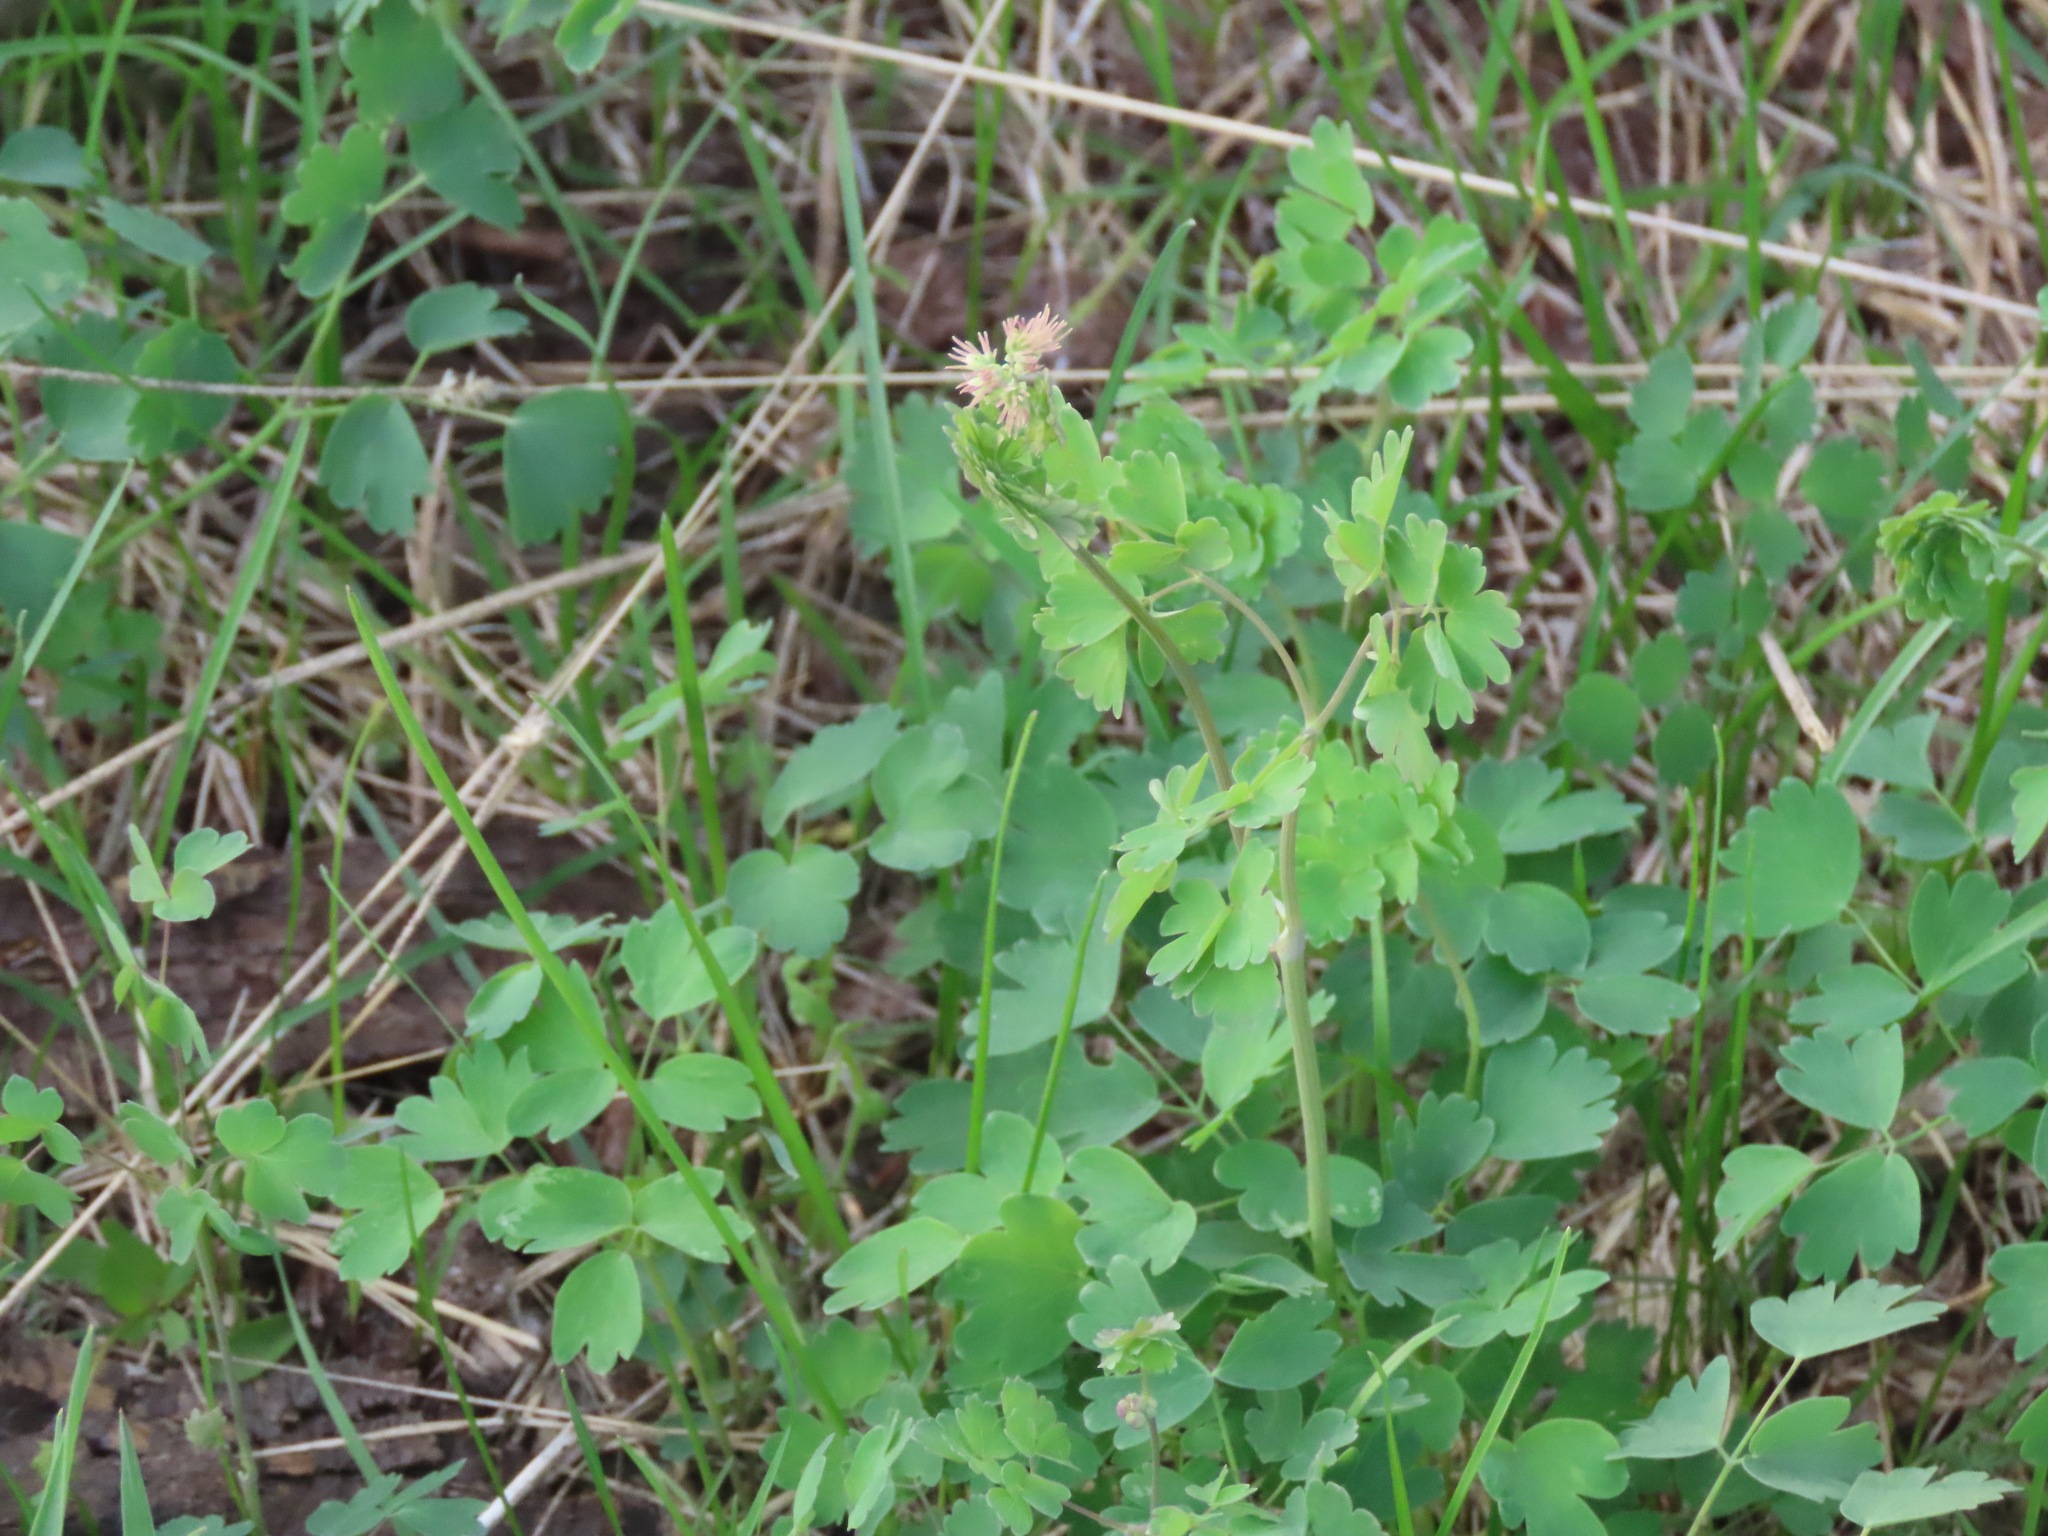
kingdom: Plantae
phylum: Tracheophyta
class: Magnoliopsida
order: Ranunculales
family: Ranunculaceae
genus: Thalictrum
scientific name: Thalictrum occidentale
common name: Western meadow-rue
